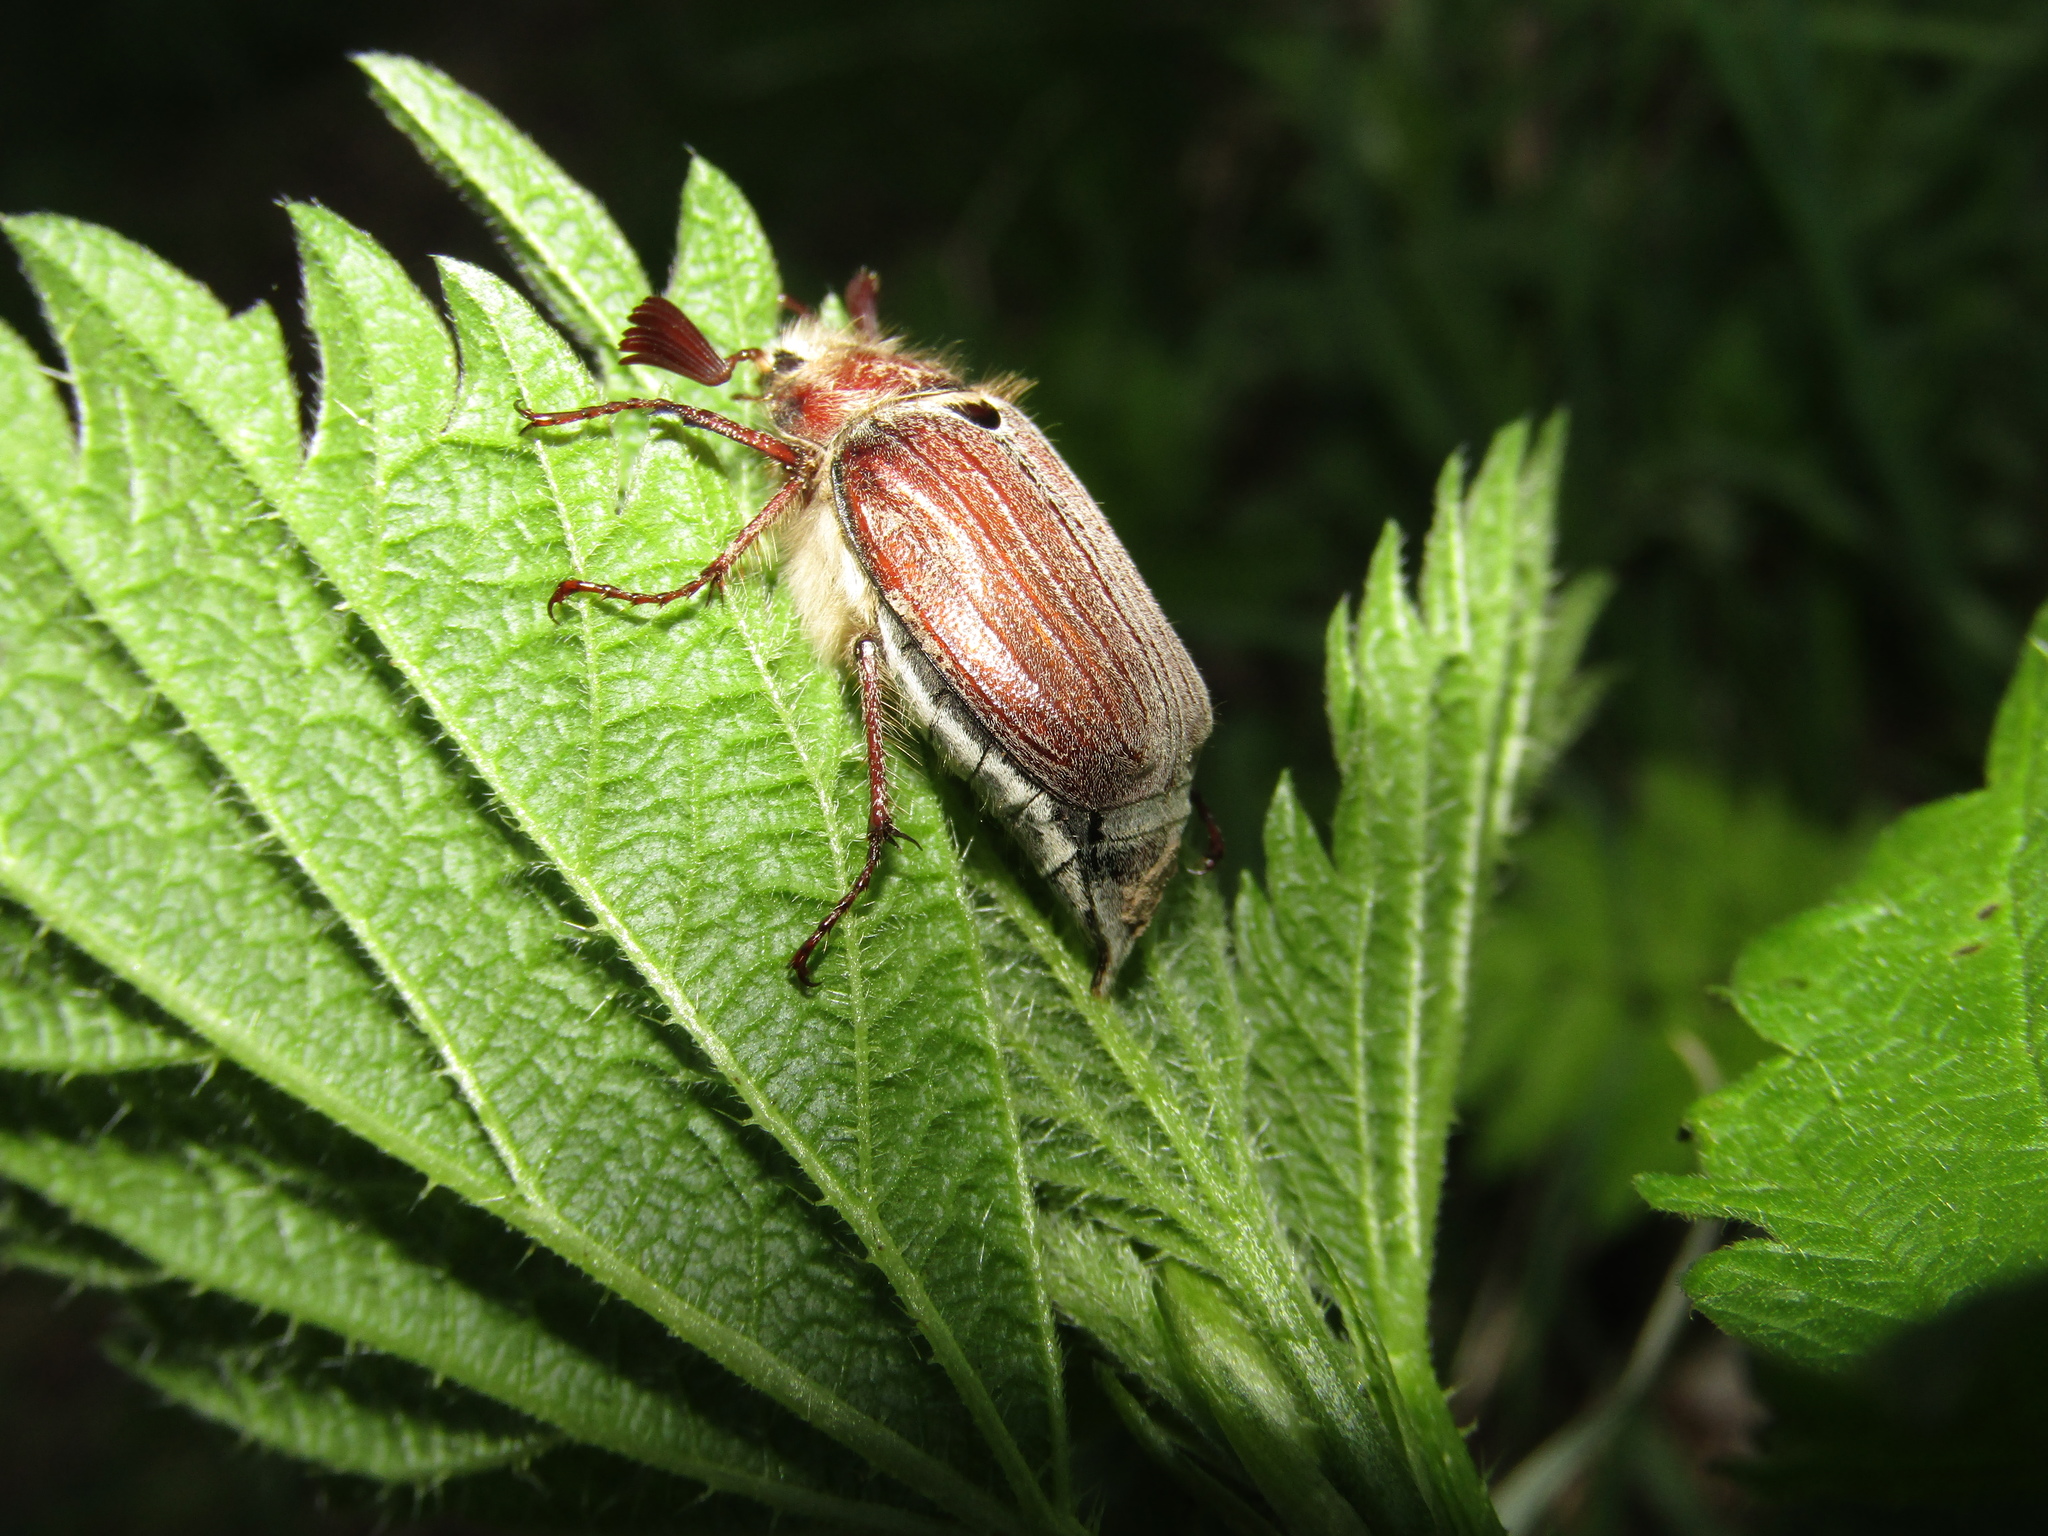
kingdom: Animalia
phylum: Arthropoda
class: Insecta
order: Coleoptera
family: Scarabaeidae
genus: Melolontha
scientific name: Melolontha hippocastani
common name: Chestnut cockchafer
